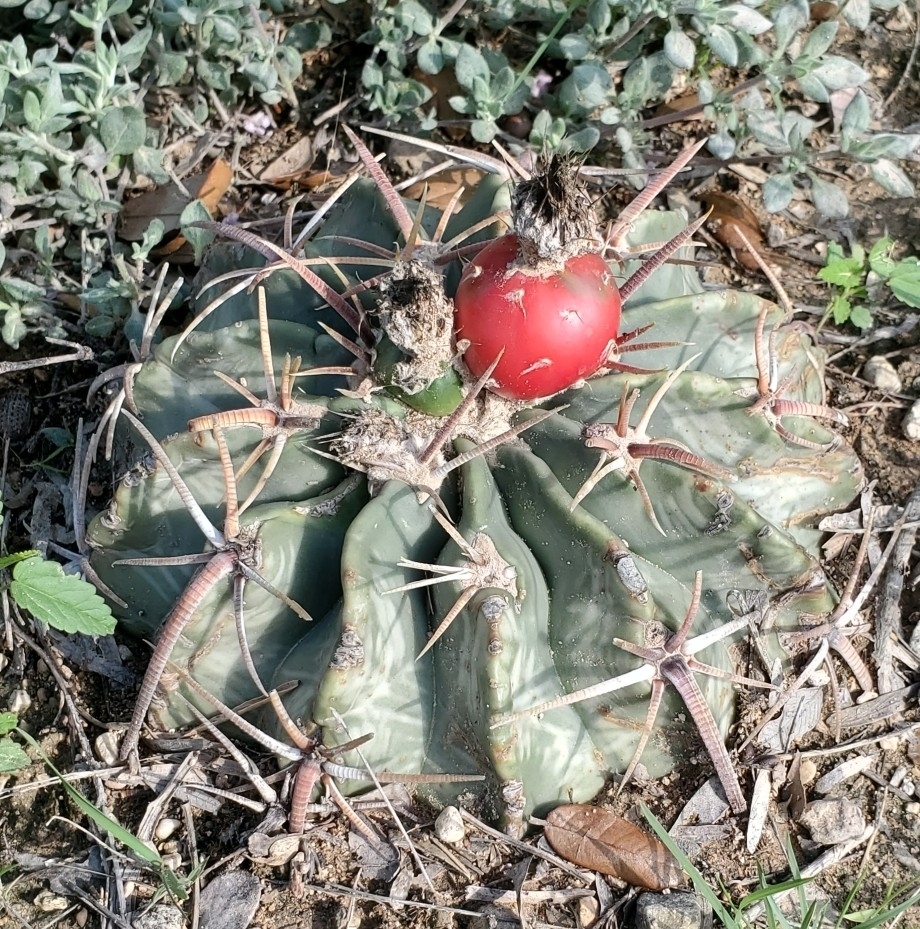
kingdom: Plantae
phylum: Tracheophyta
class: Magnoliopsida
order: Caryophyllales
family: Cactaceae
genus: Echinocactus
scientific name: Echinocactus texensis
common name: Devil's pincushion
